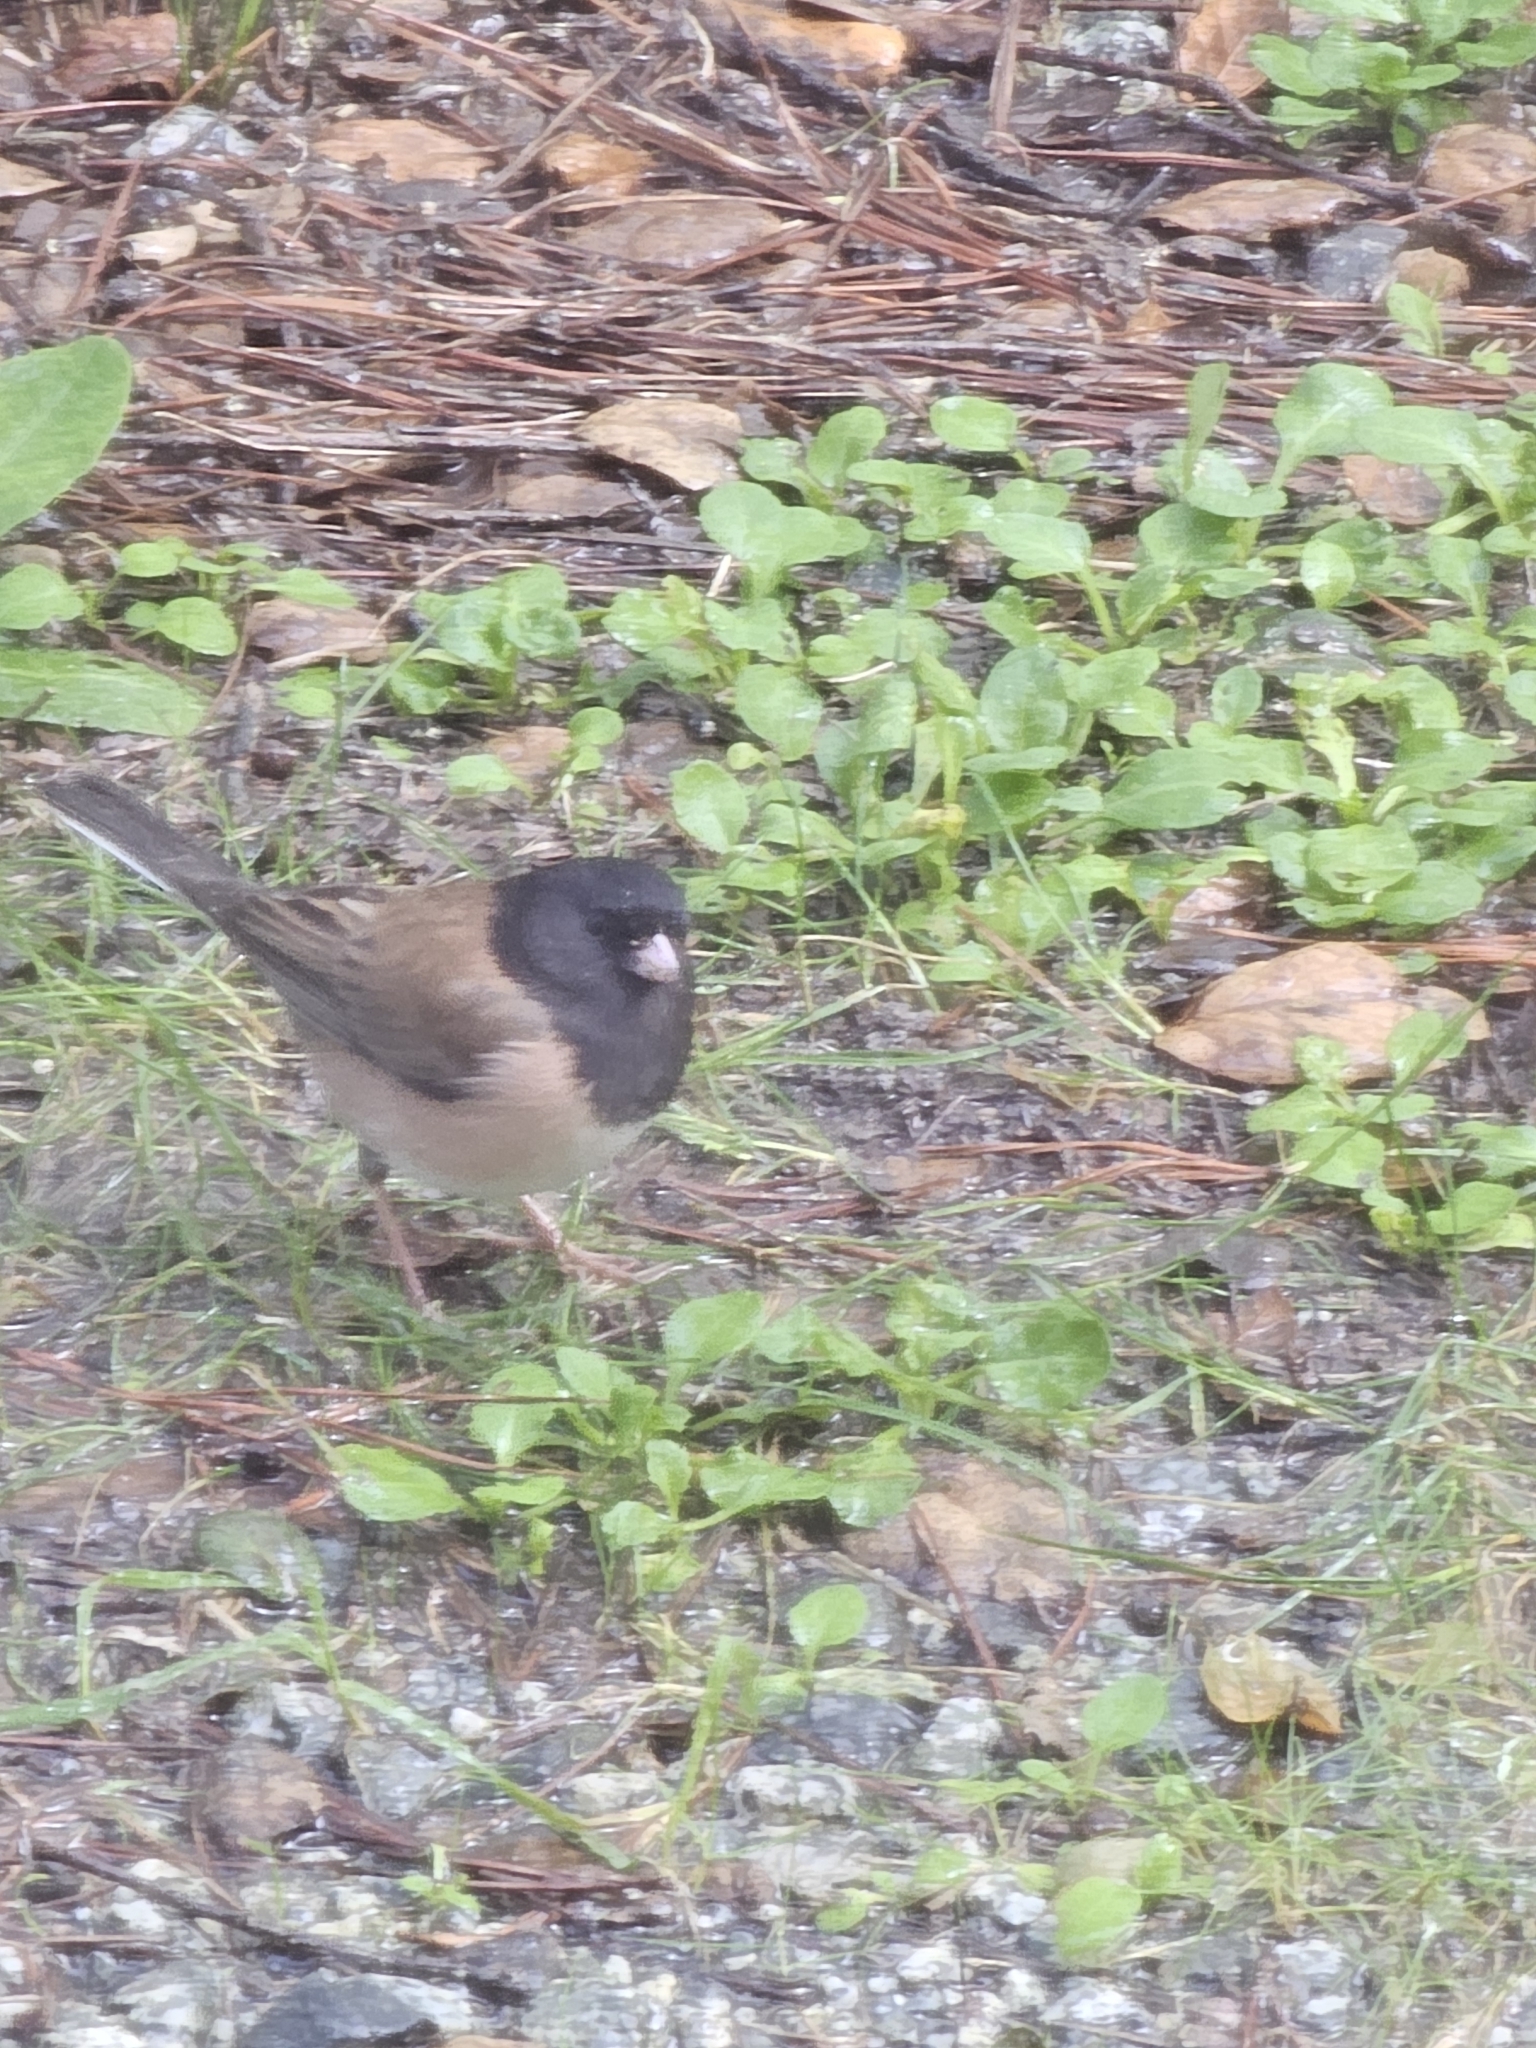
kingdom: Animalia
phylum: Chordata
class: Aves
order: Passeriformes
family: Passerellidae
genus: Junco
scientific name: Junco hyemalis
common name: Dark-eyed junco
